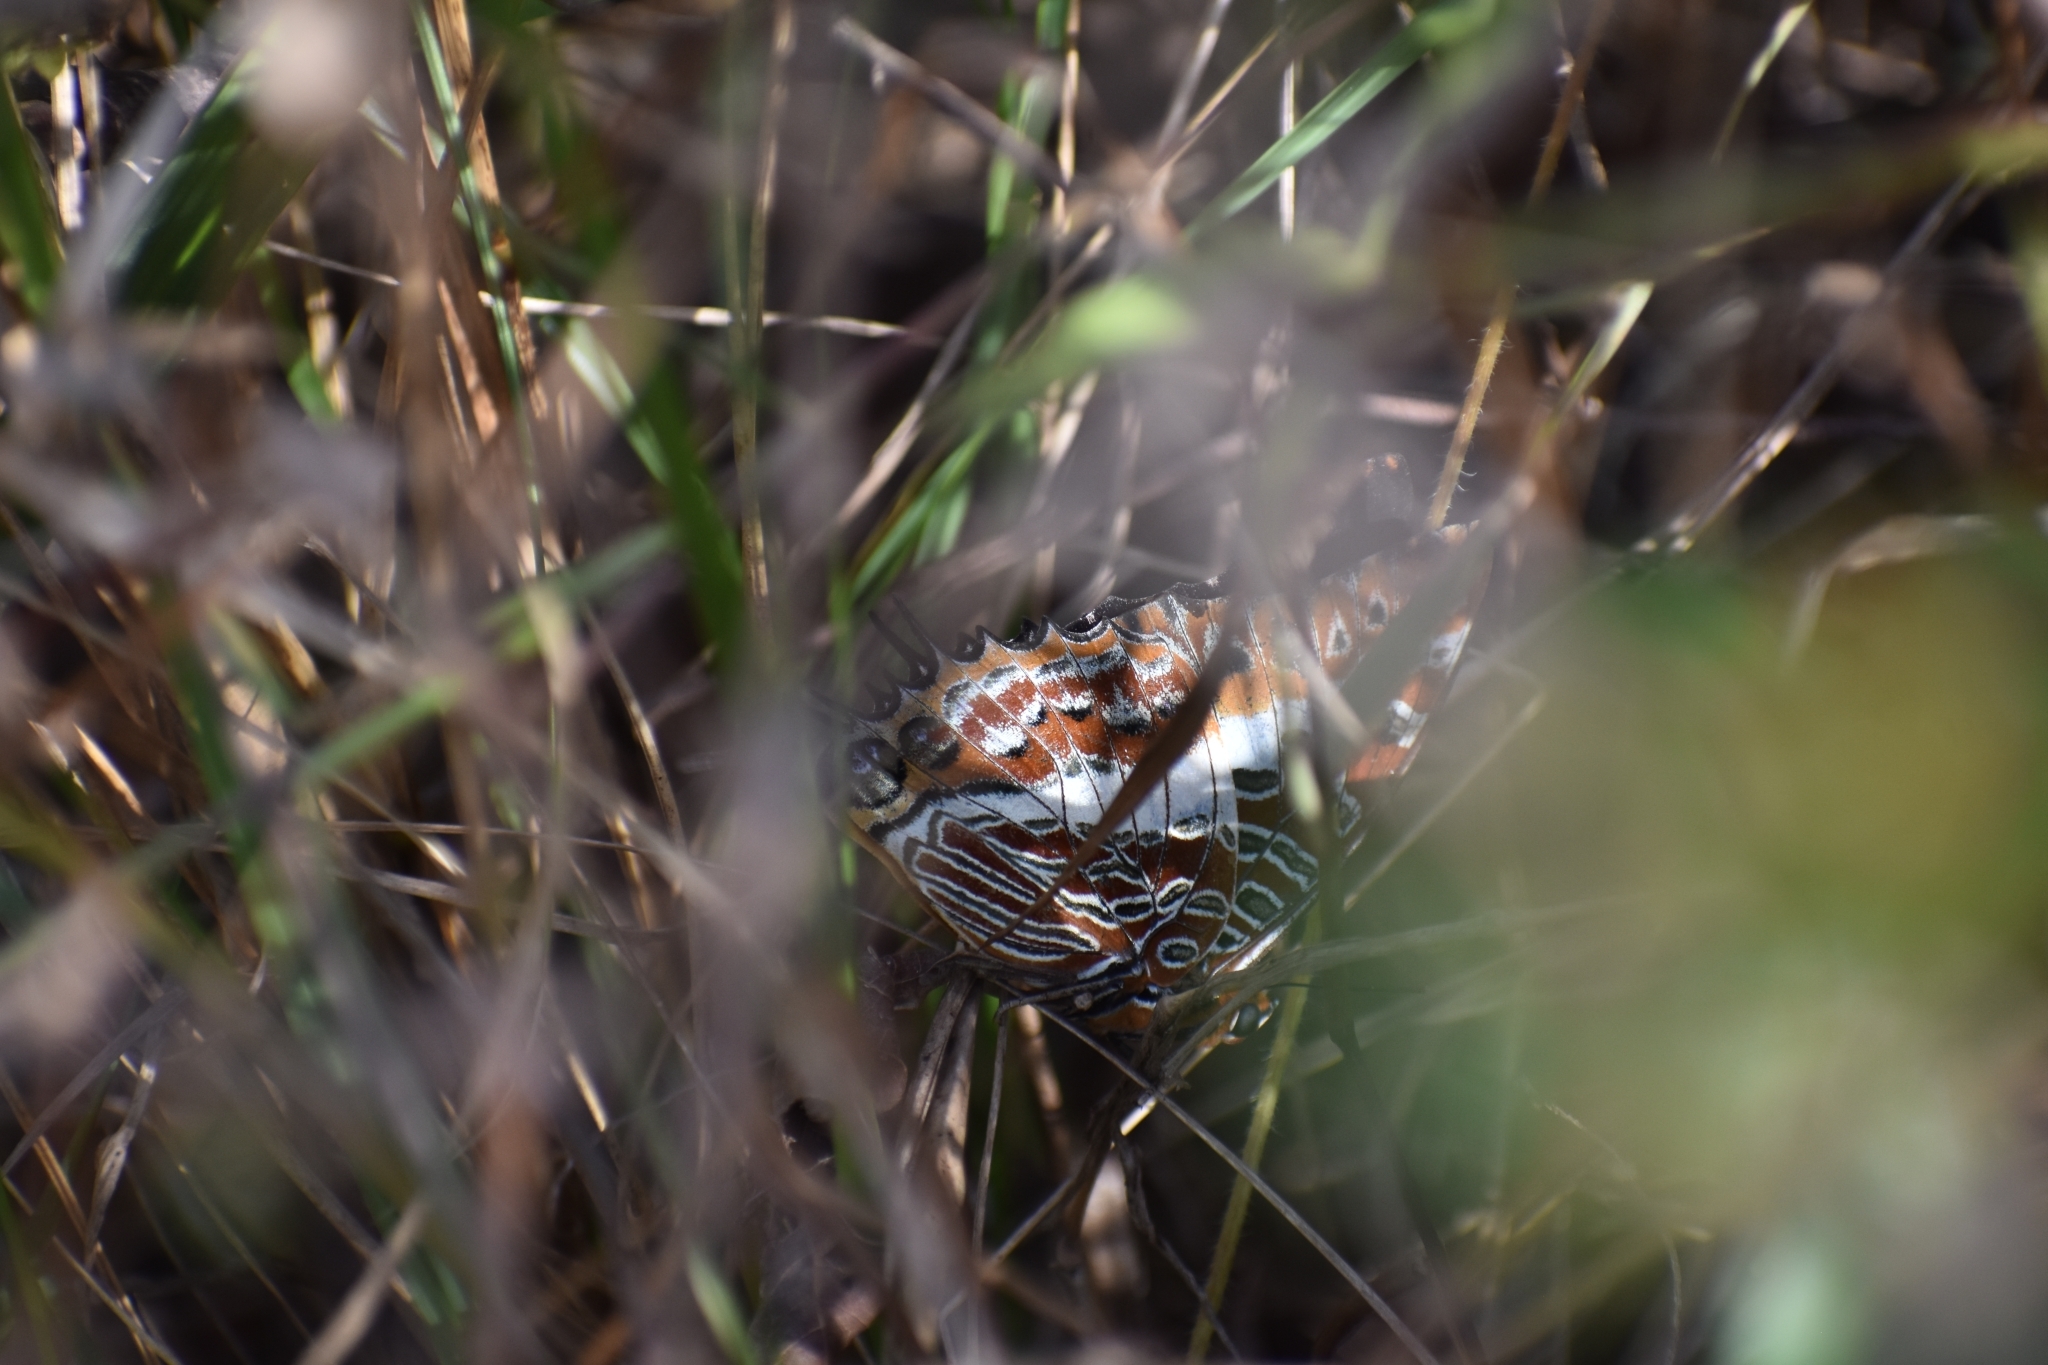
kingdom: Animalia
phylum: Arthropoda
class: Insecta
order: Lepidoptera
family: Nymphalidae
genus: Charaxes
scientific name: Charaxes brutus
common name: White-barred charaxes
